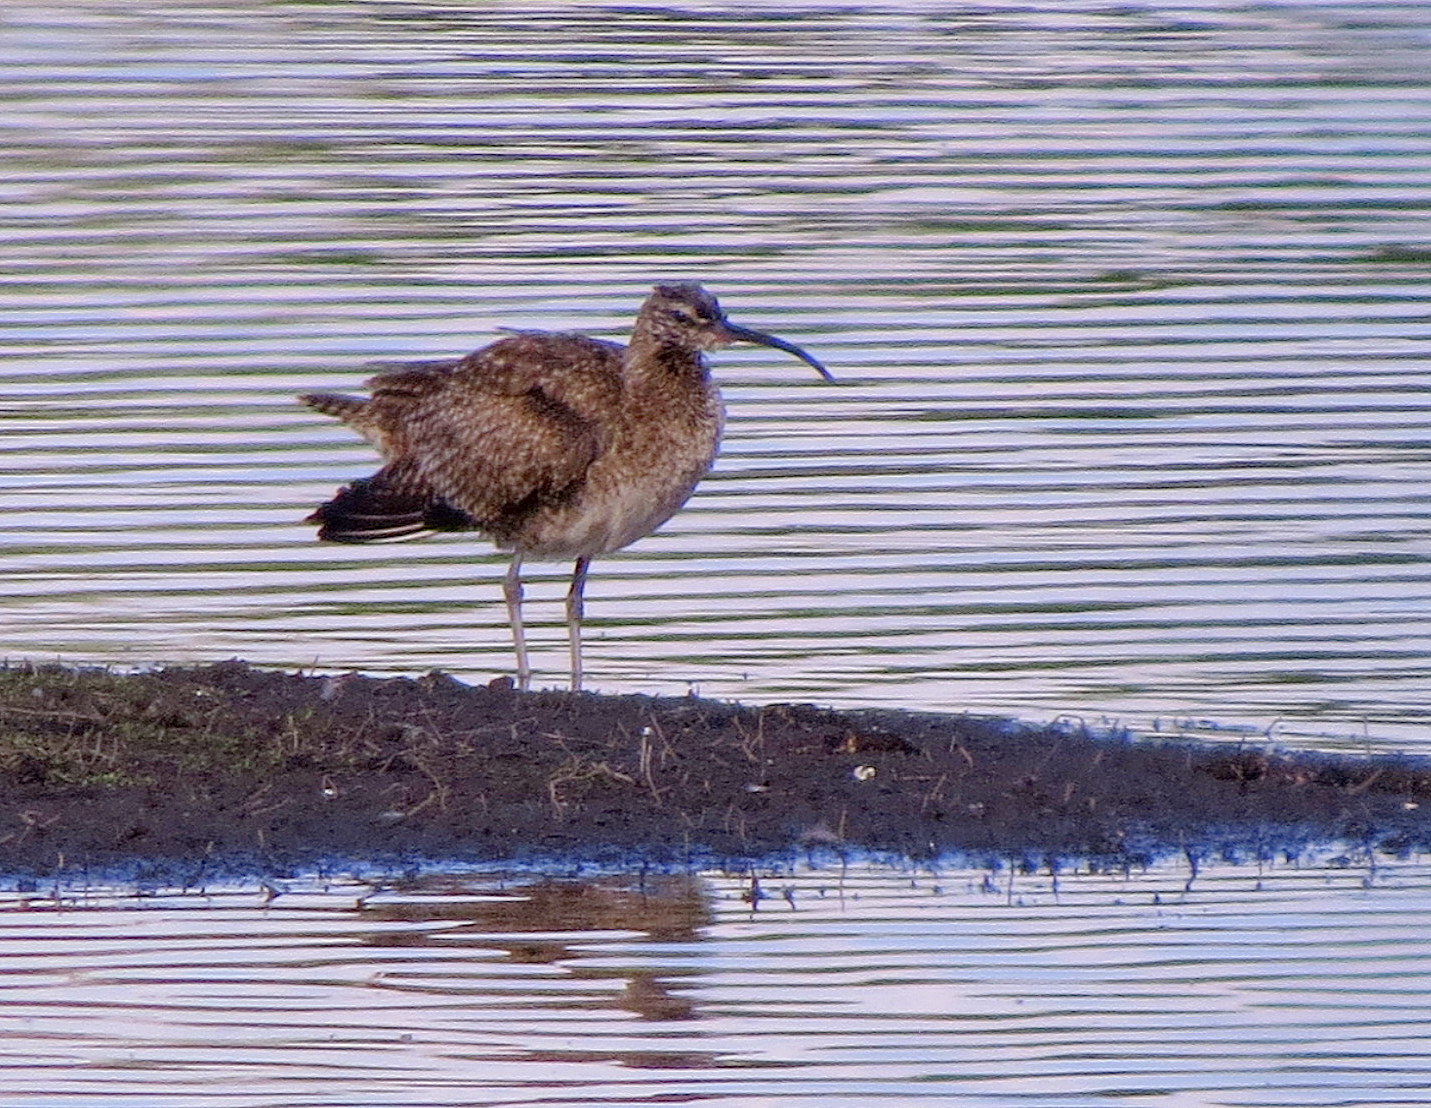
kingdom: Animalia
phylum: Chordata
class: Aves
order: Charadriiformes
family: Scolopacidae
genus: Numenius
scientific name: Numenius phaeopus
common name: Whimbrel
